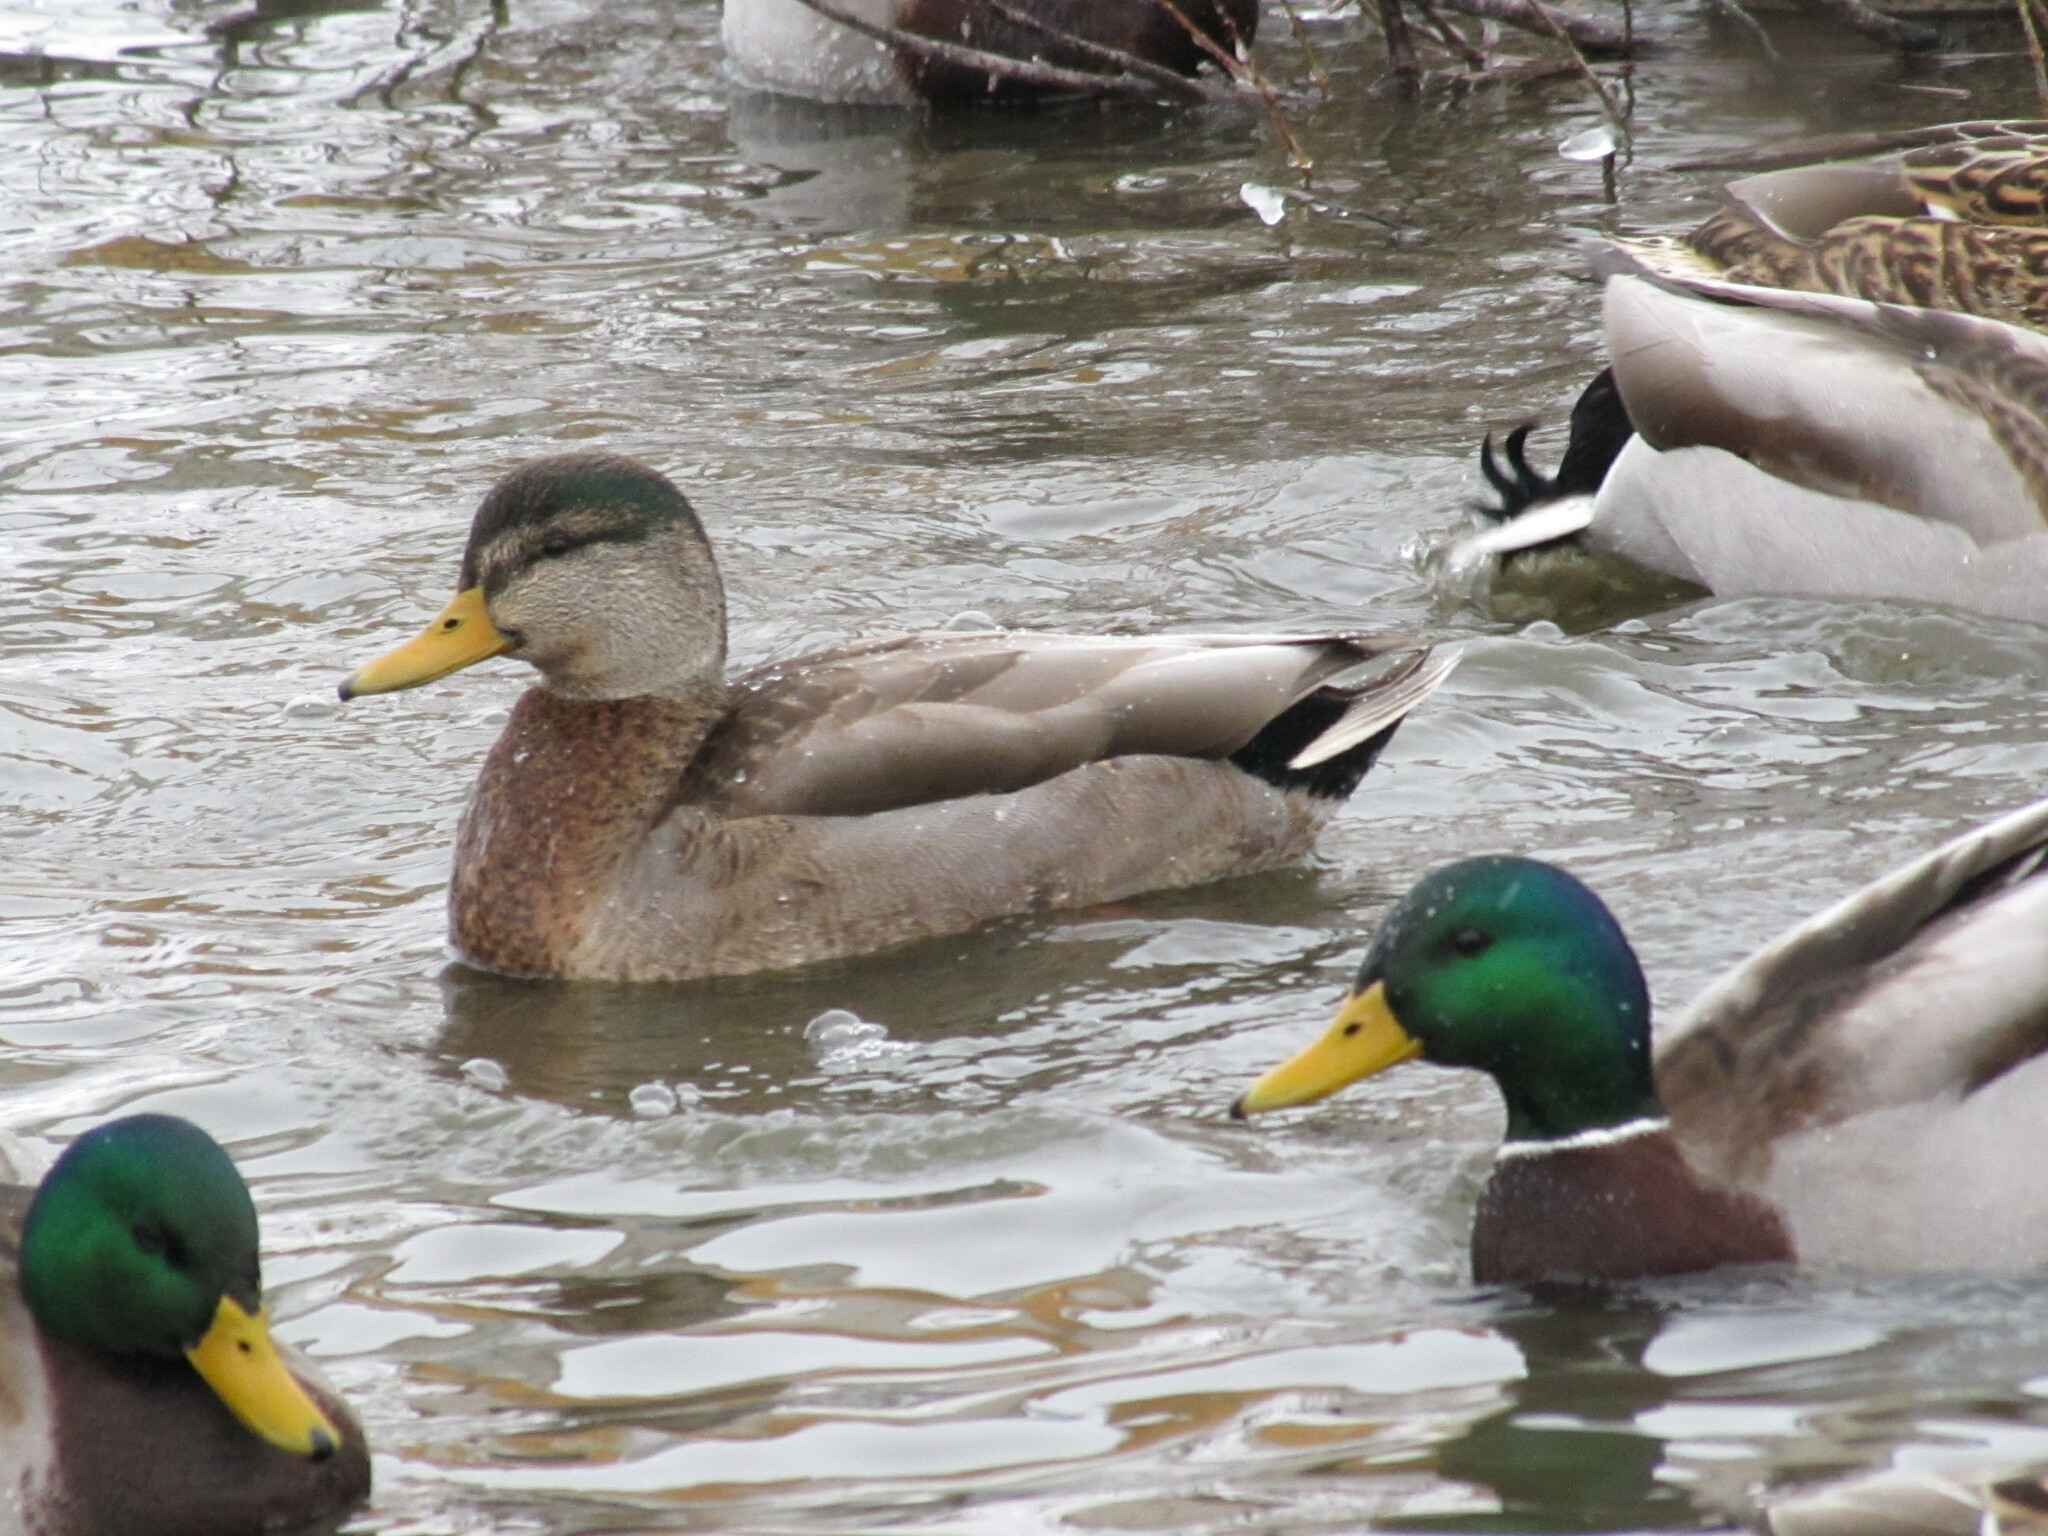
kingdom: Animalia
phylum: Chordata
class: Aves
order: Anseriformes
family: Anatidae
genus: Anas
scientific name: Anas
